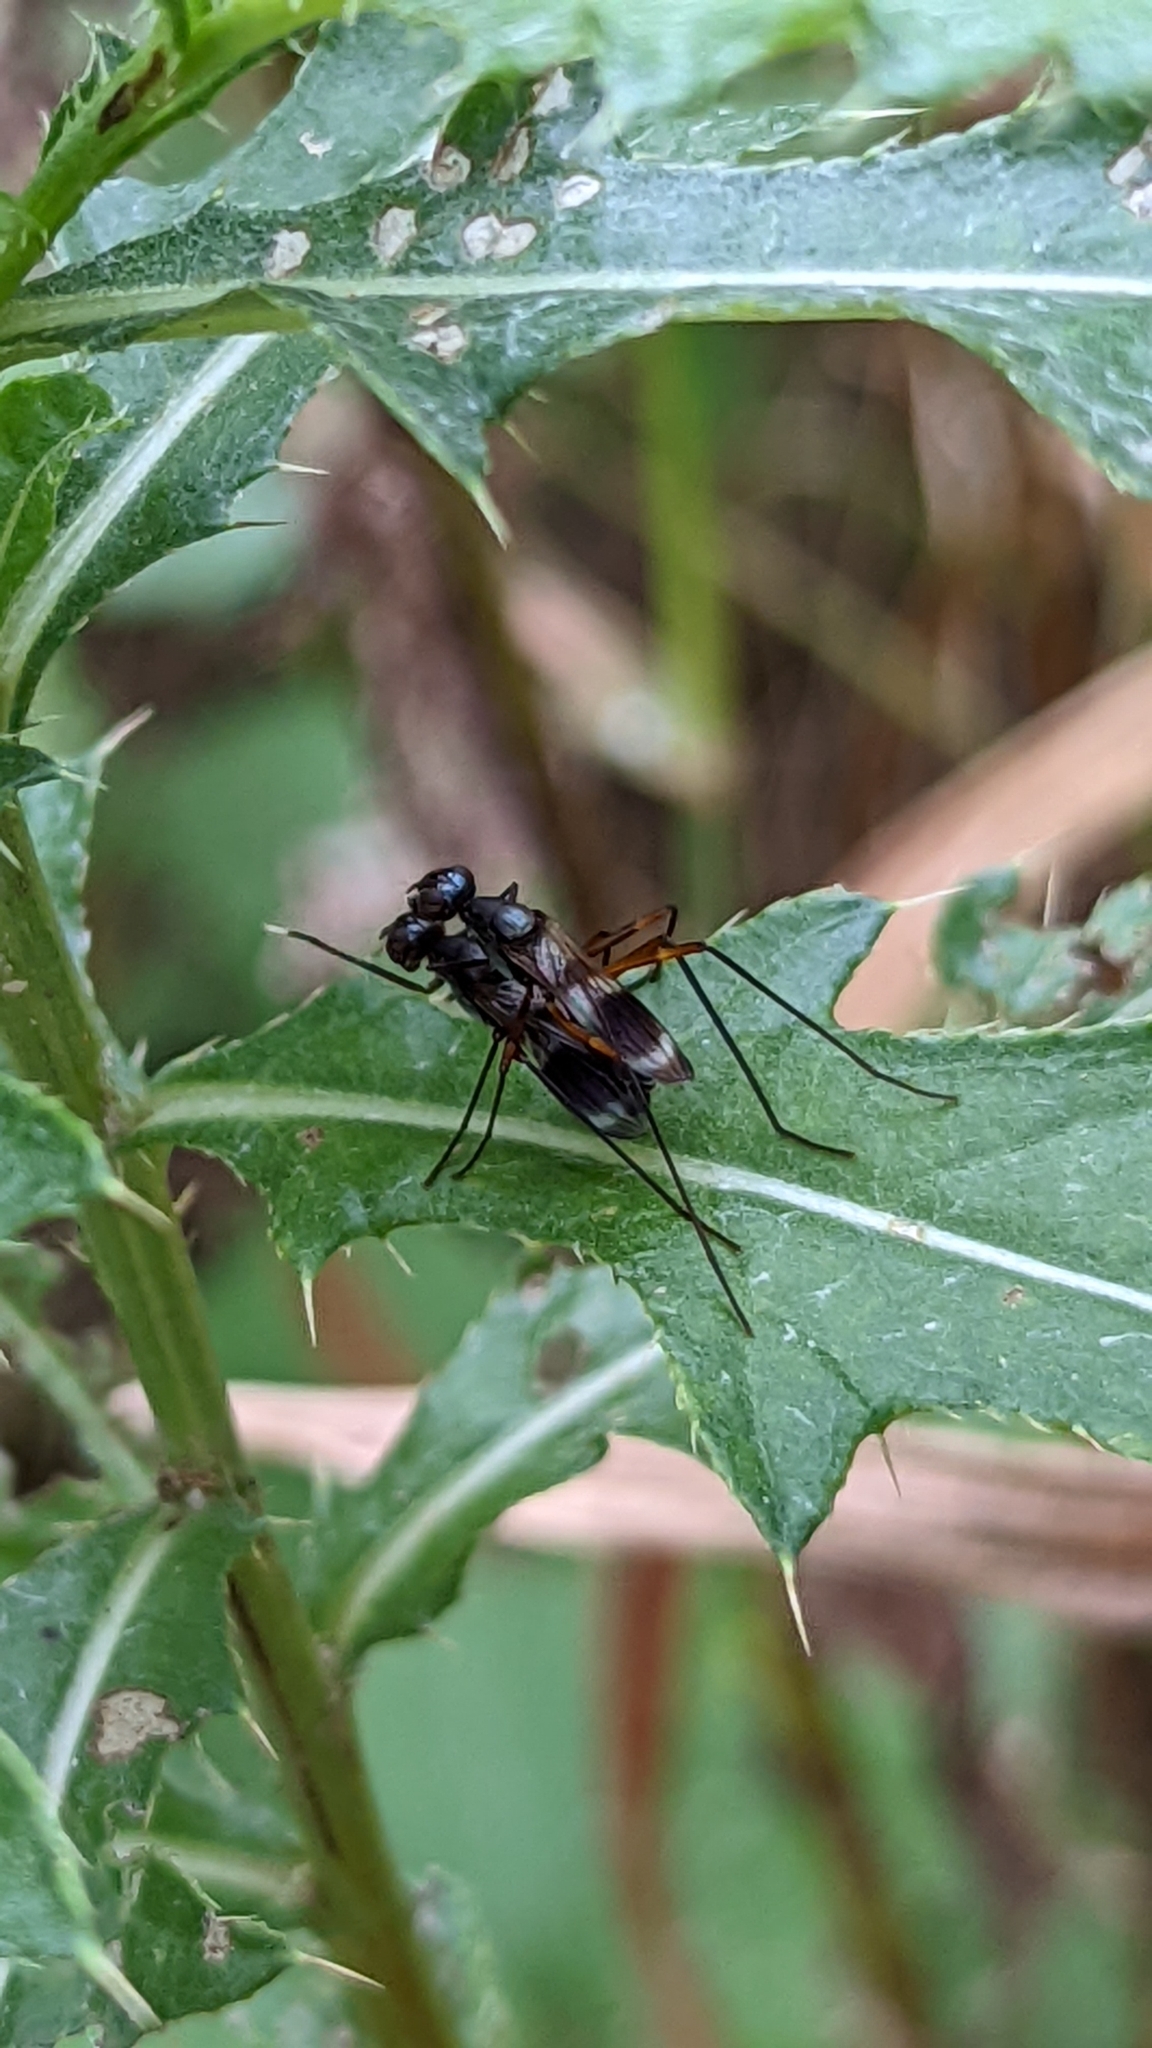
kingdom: Animalia
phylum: Arthropoda
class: Insecta
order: Diptera
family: Micropezidae
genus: Taeniaptera
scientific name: Taeniaptera trivittata
